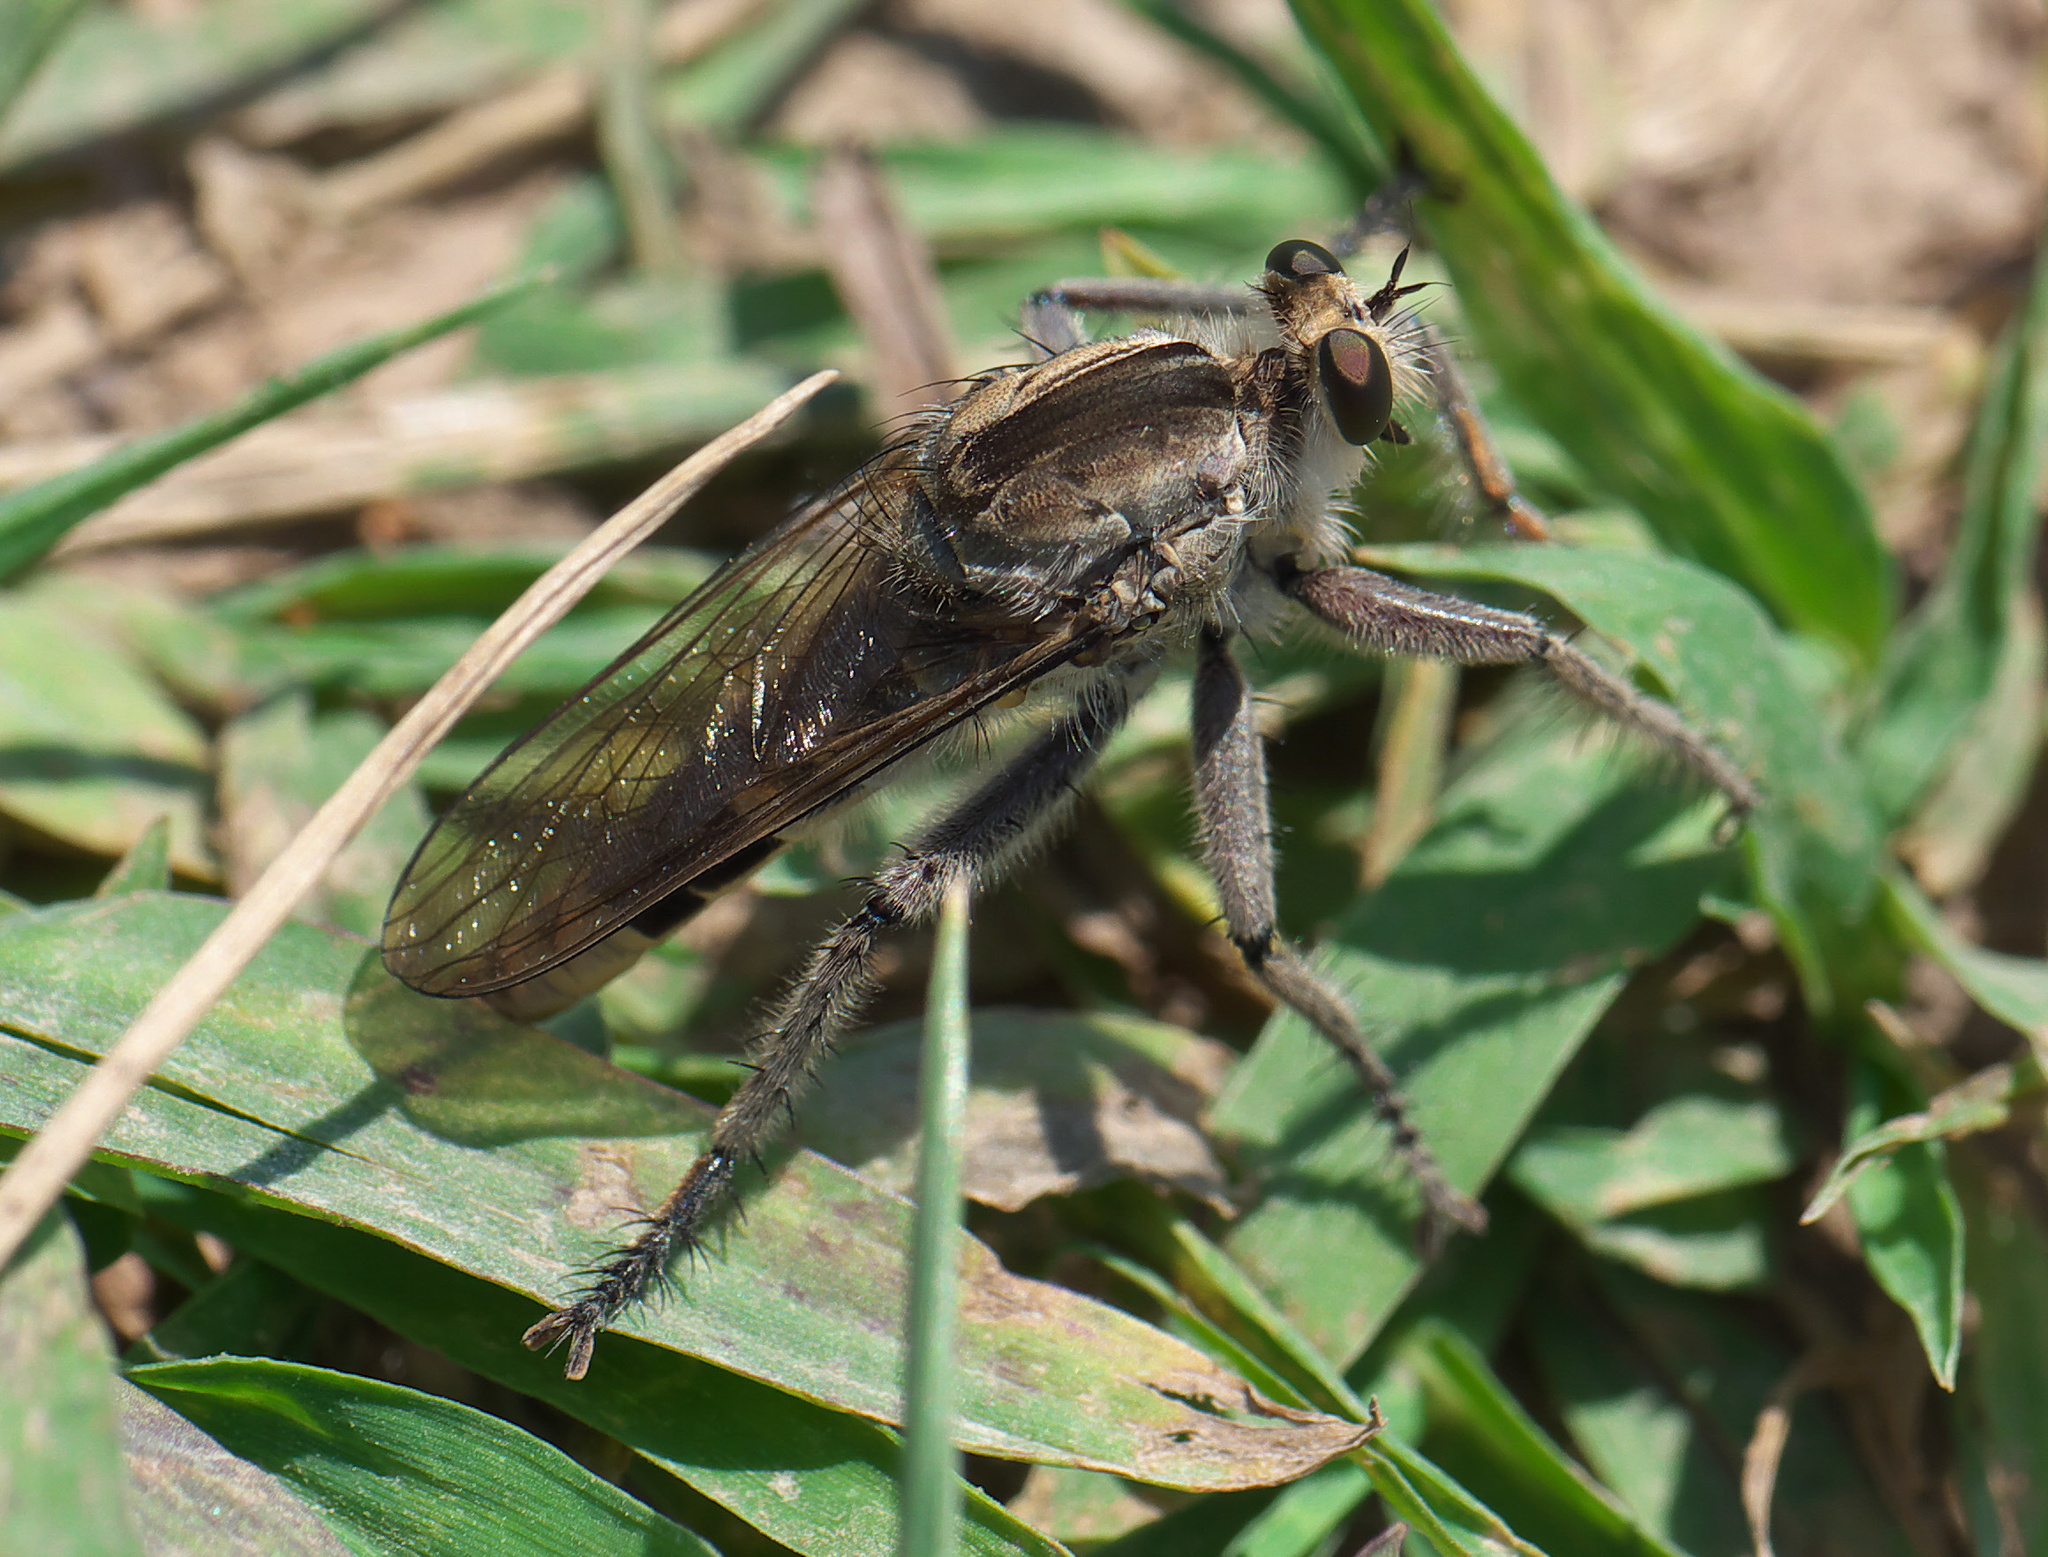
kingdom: Animalia
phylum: Arthropoda
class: Insecta
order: Diptera
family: Asilidae
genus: Triorla
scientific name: Triorla interrupta
